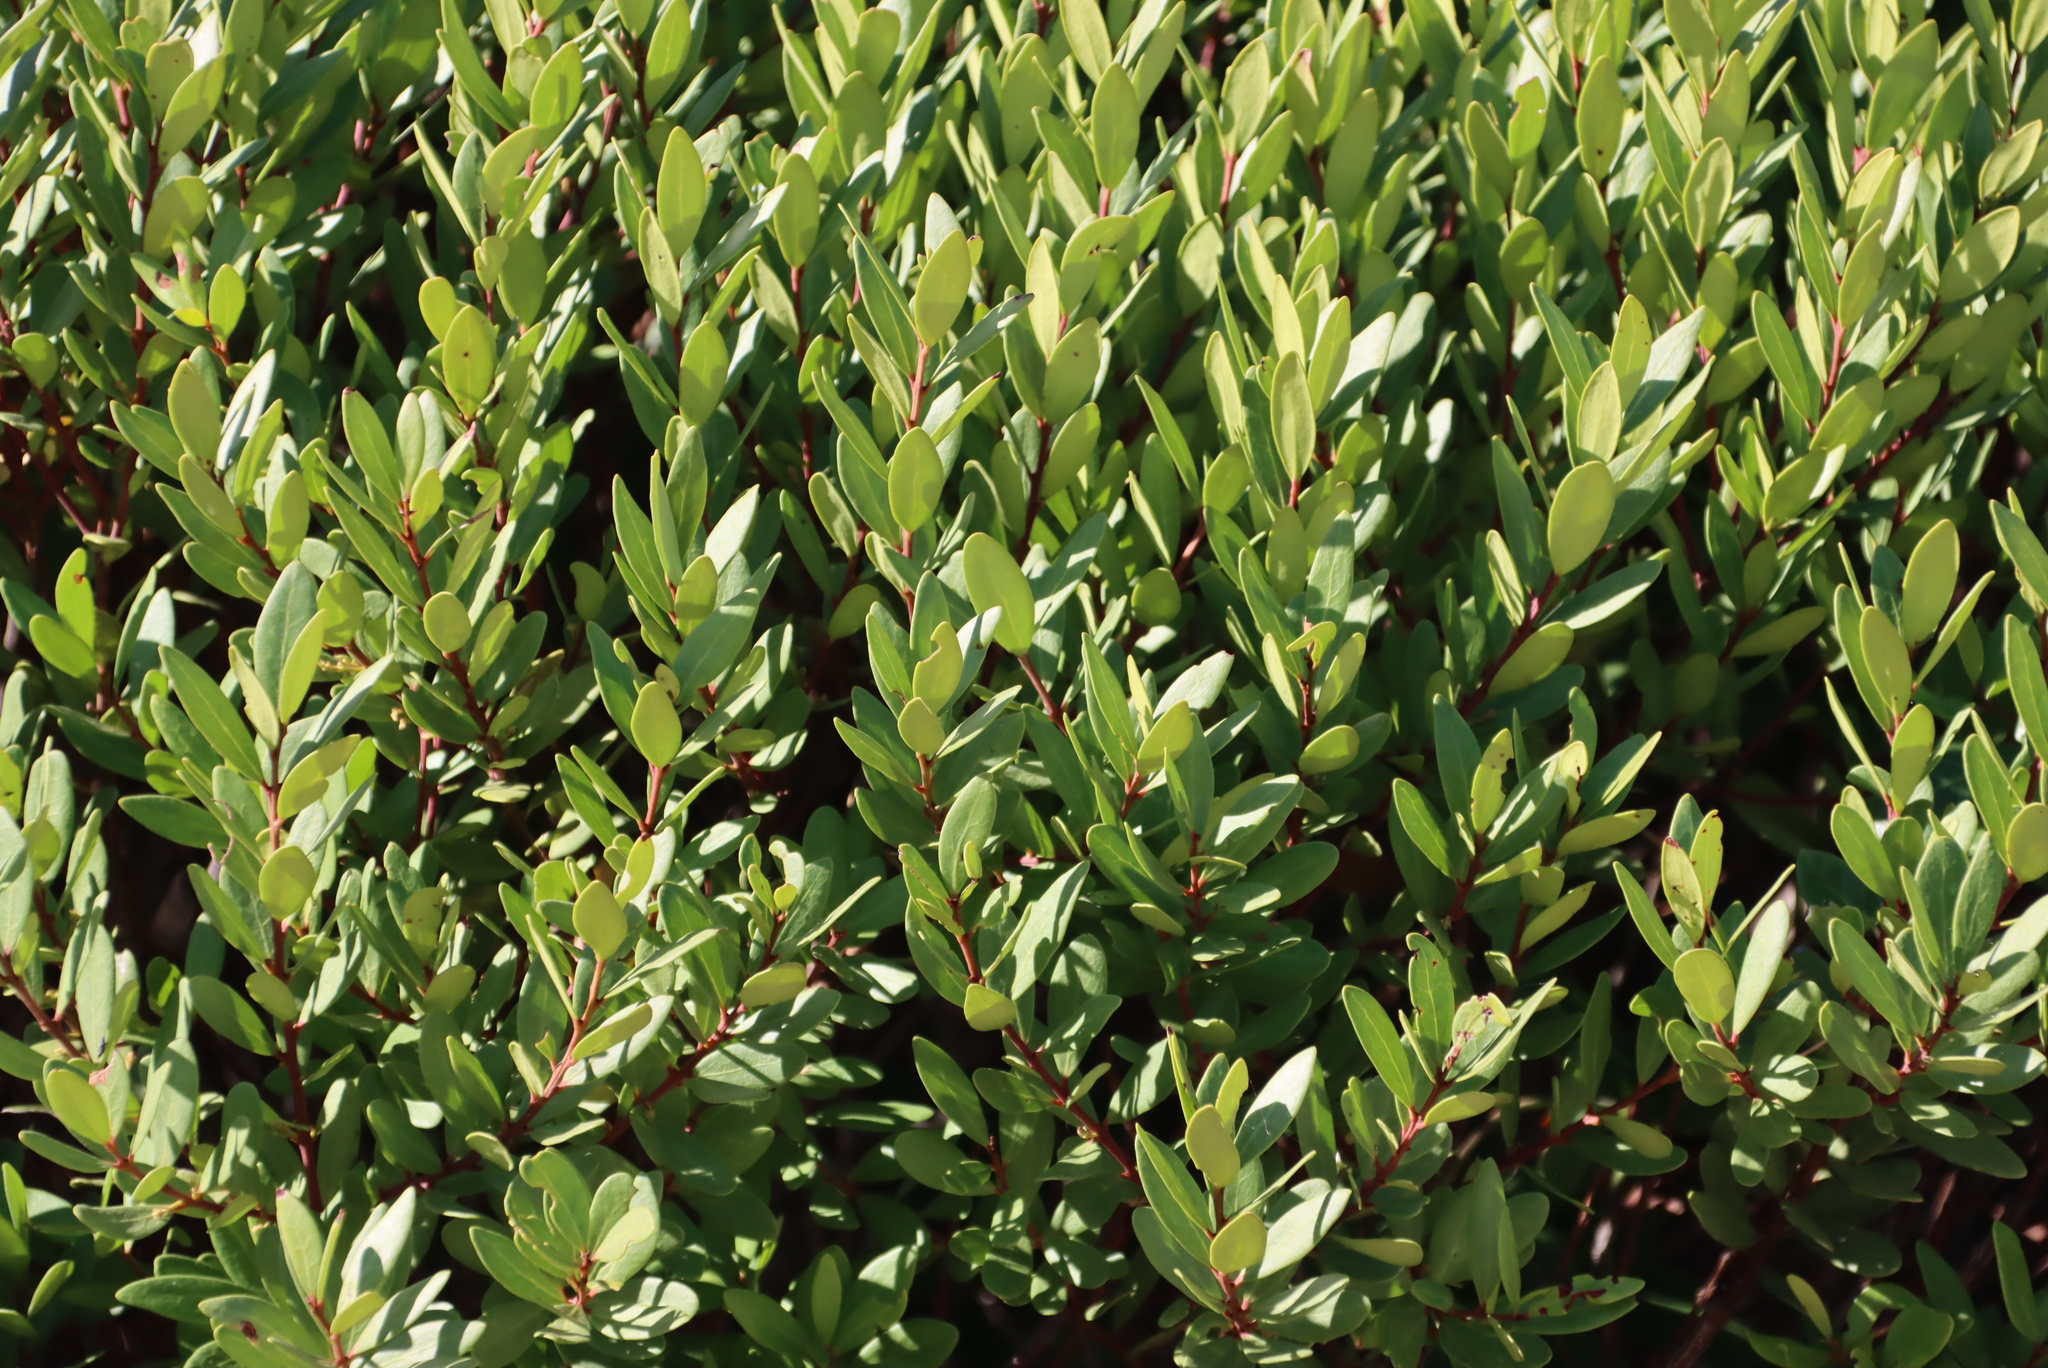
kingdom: Plantae
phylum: Tracheophyta
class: Magnoliopsida
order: Ericales
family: Ebenaceae
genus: Euclea
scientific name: Euclea racemosa
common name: Dune guarri
